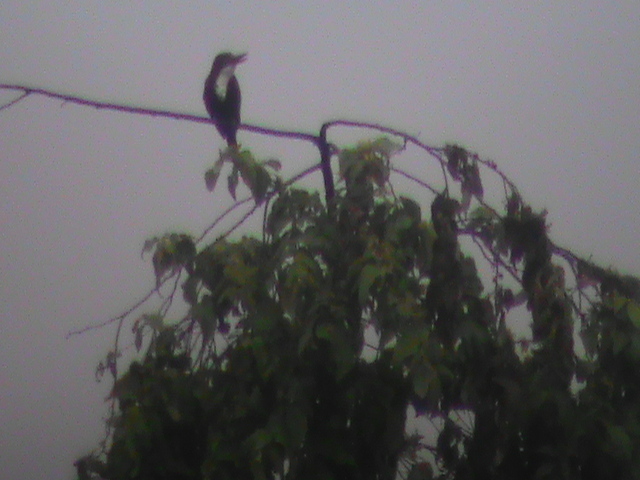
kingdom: Animalia
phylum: Chordata
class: Aves
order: Coraciiformes
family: Alcedinidae
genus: Halcyon
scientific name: Halcyon smyrnensis
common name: White-throated kingfisher
